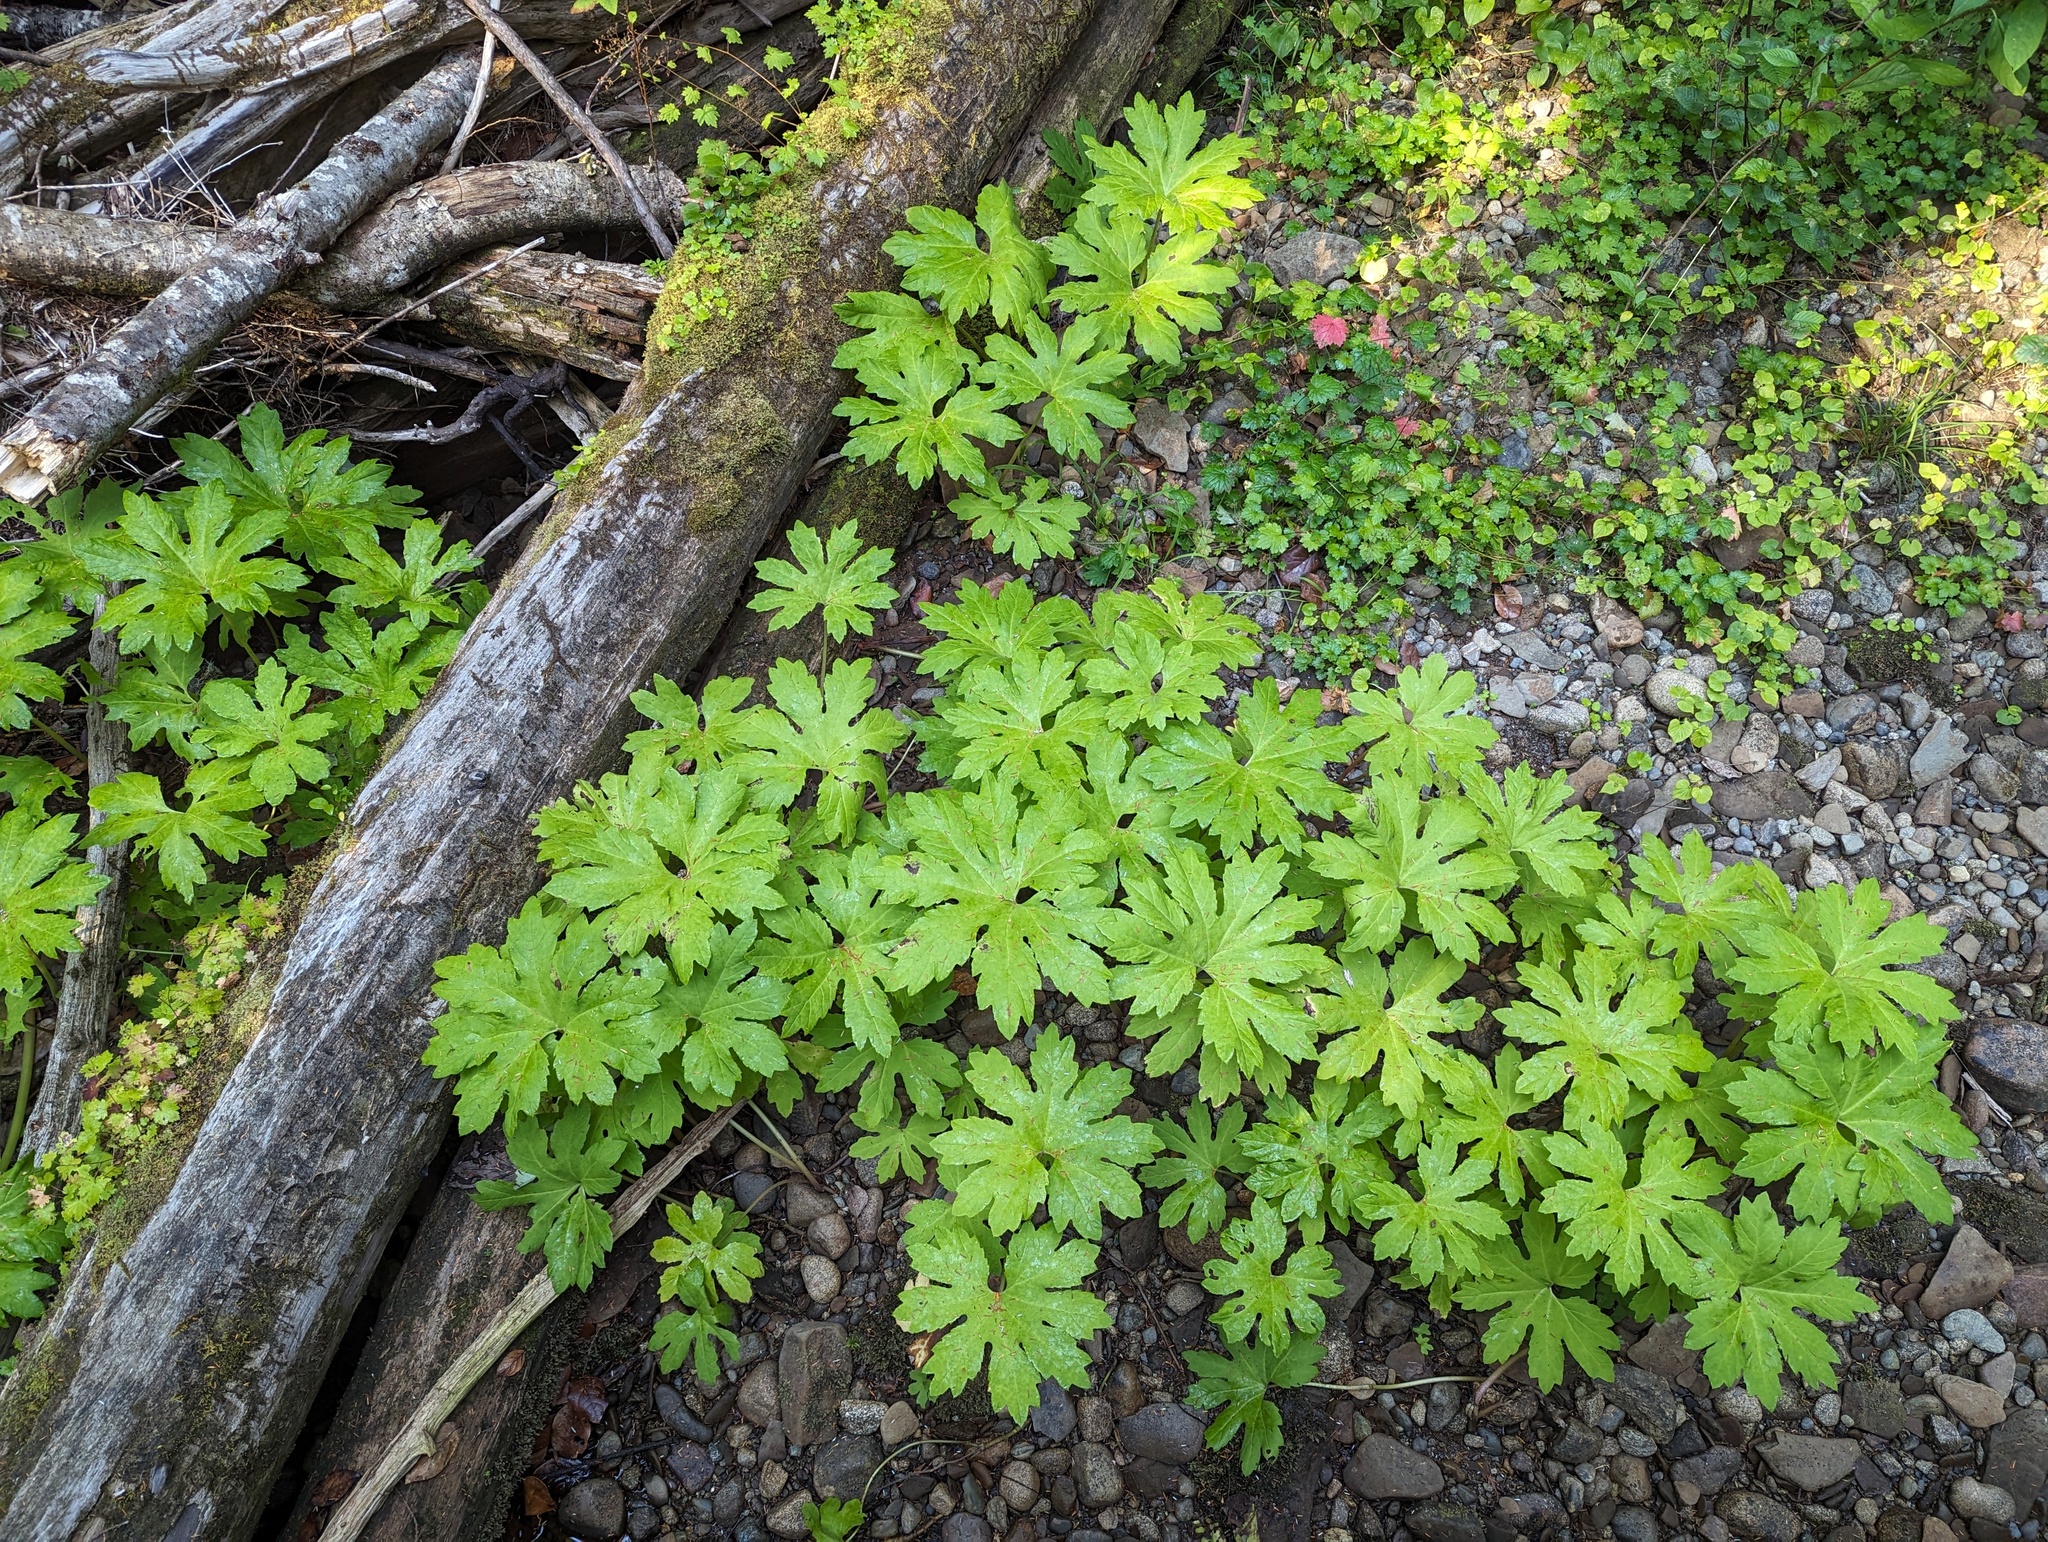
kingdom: Plantae
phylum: Tracheophyta
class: Magnoliopsida
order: Asterales
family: Asteraceae
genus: Petasites
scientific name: Petasites frigidus
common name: Arctic butterbur
